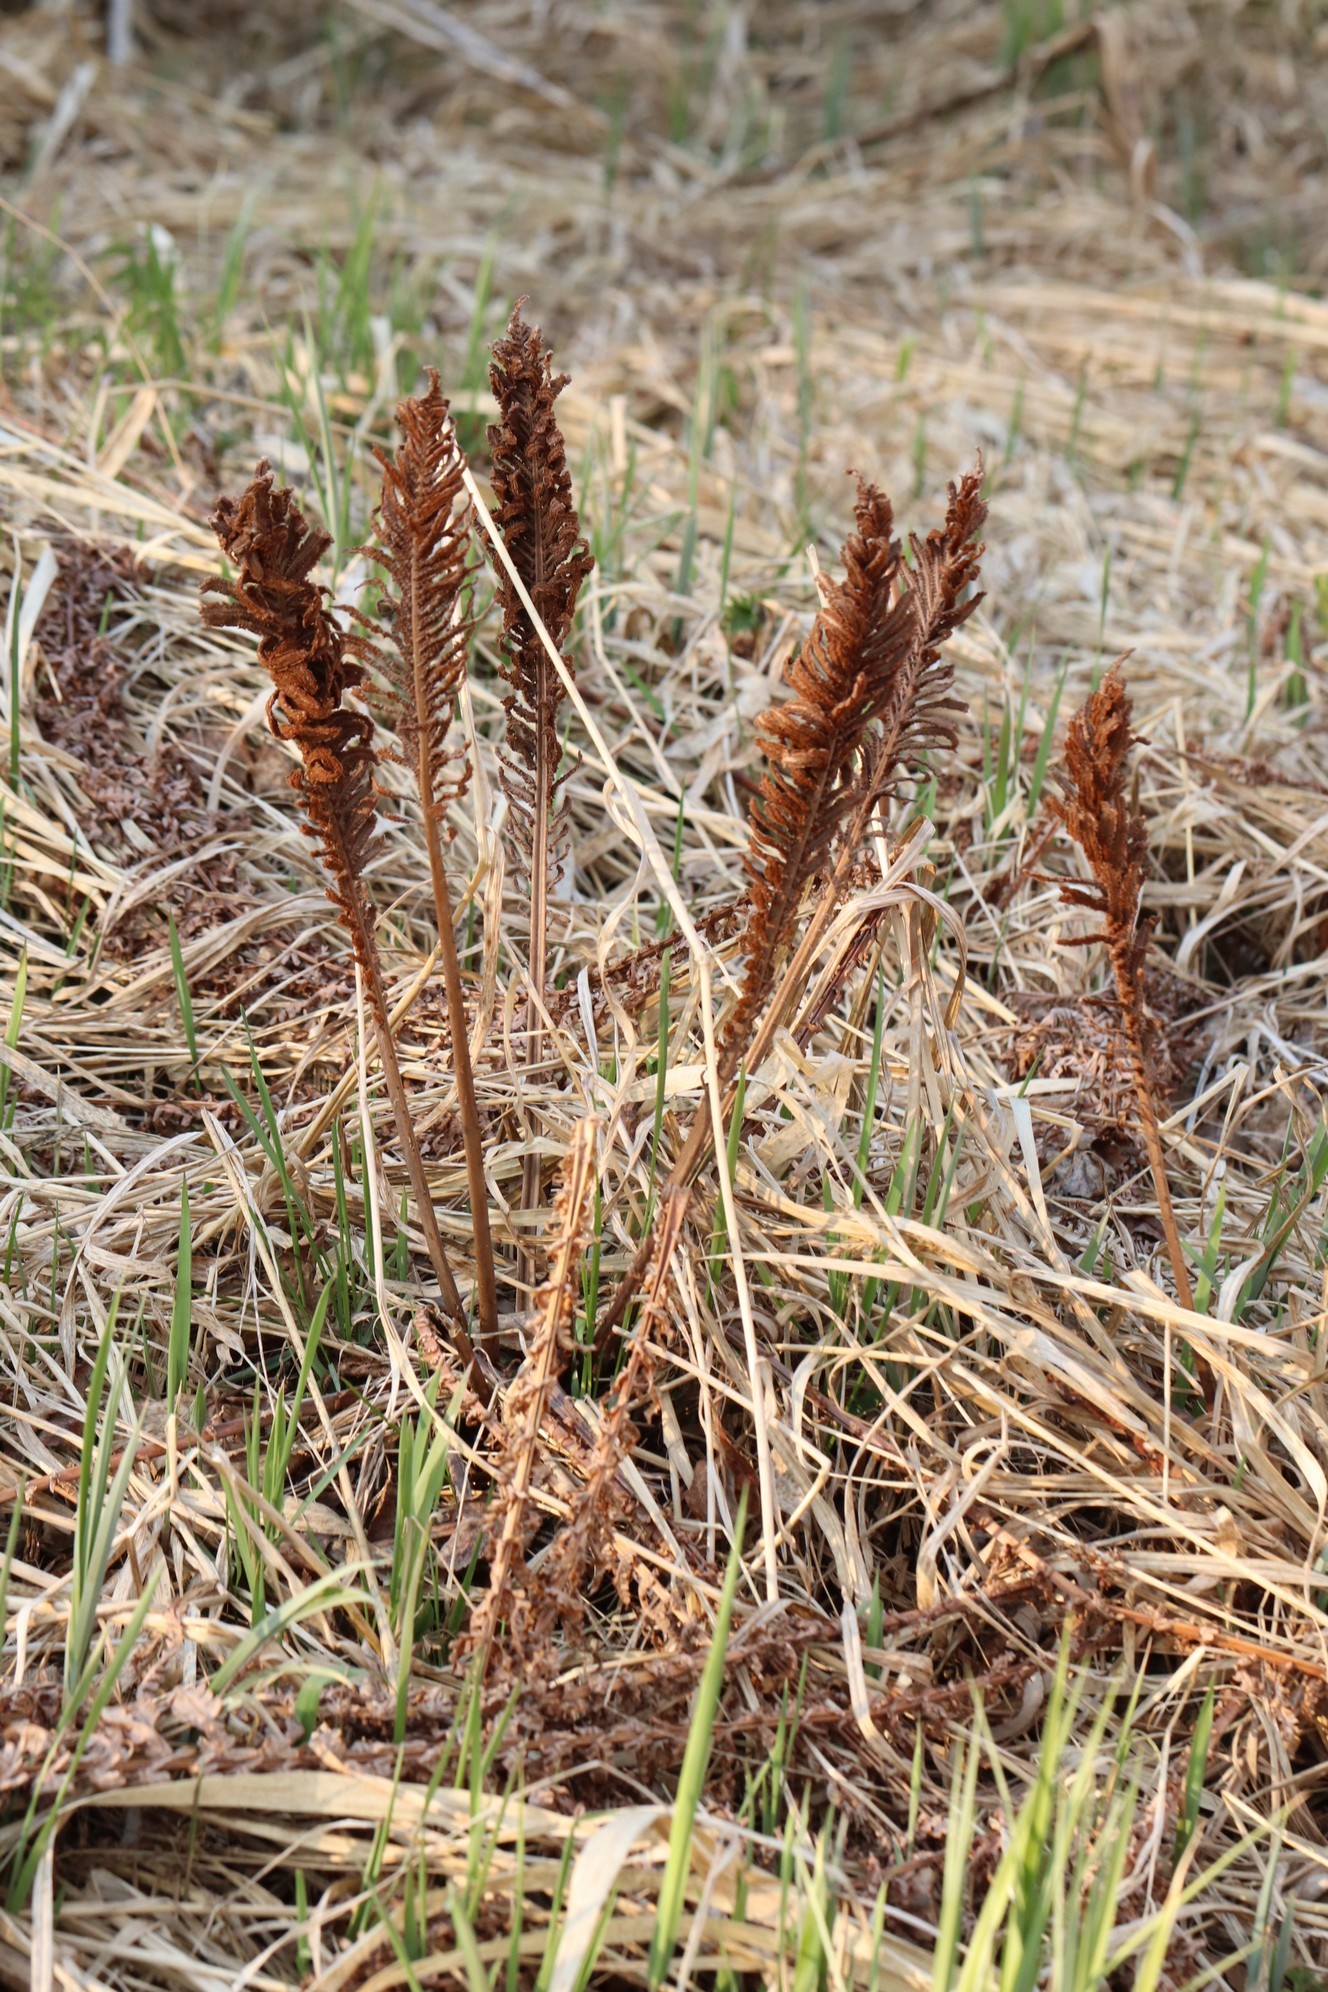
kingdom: Plantae
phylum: Tracheophyta
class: Polypodiopsida
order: Polypodiales
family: Onocleaceae
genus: Matteuccia
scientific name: Matteuccia struthiopteris
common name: Ostrich fern
